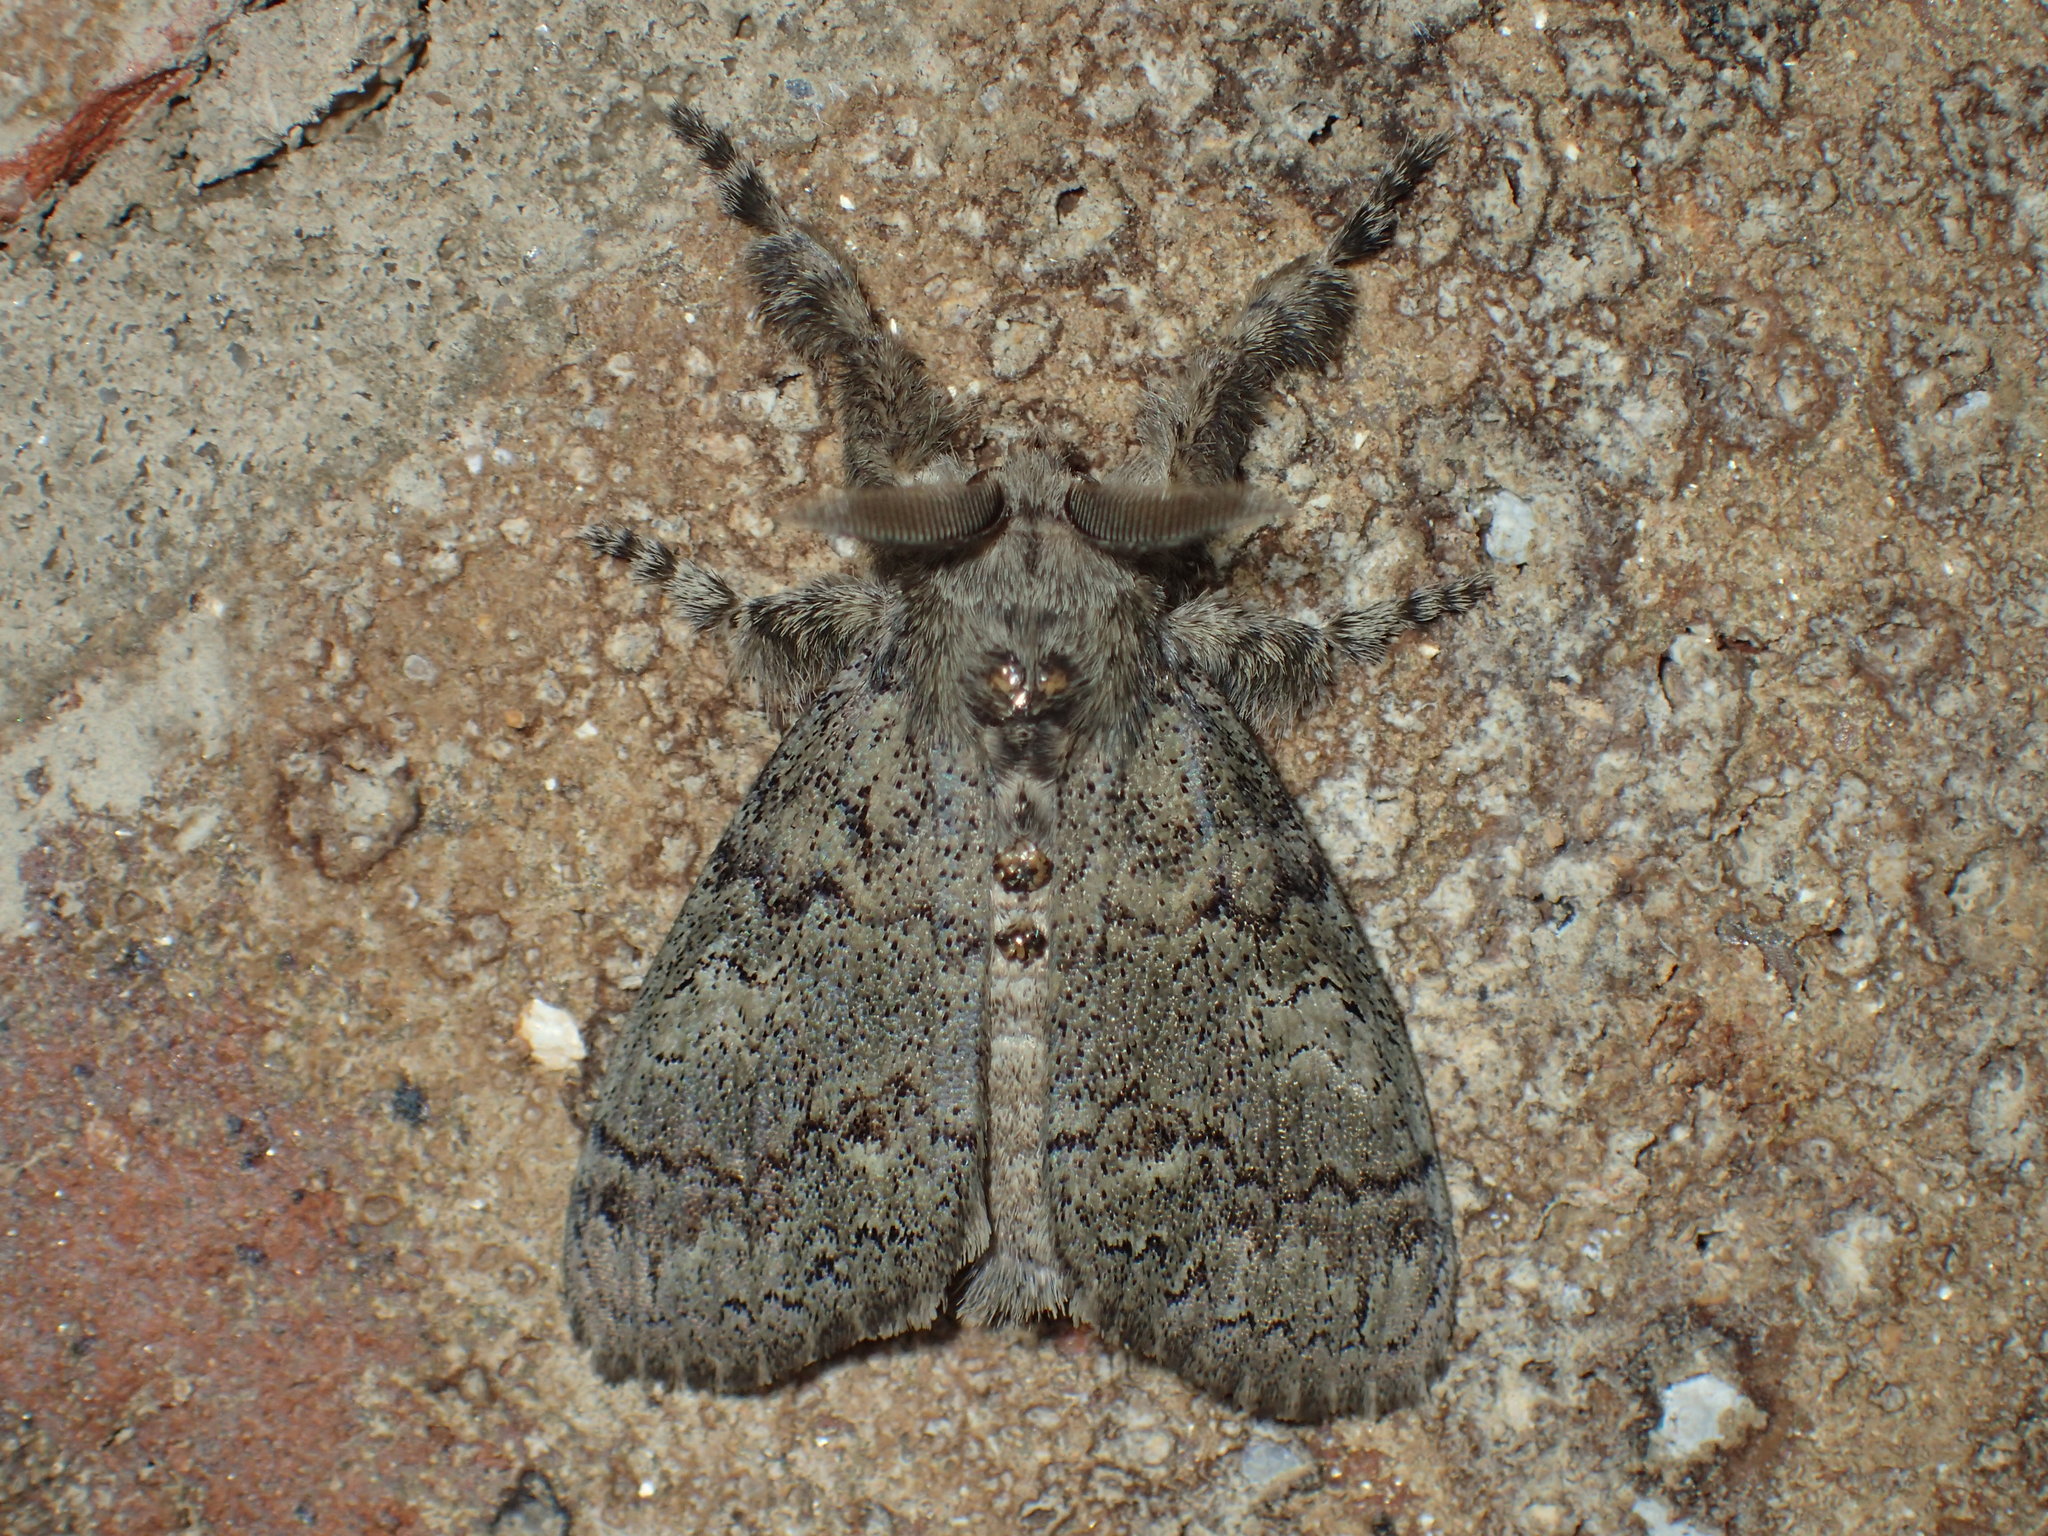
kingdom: Animalia
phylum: Arthropoda
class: Insecta
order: Lepidoptera
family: Erebidae
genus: Orgyia
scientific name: Orgyia leucostigma
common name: White-marked tussock moth
